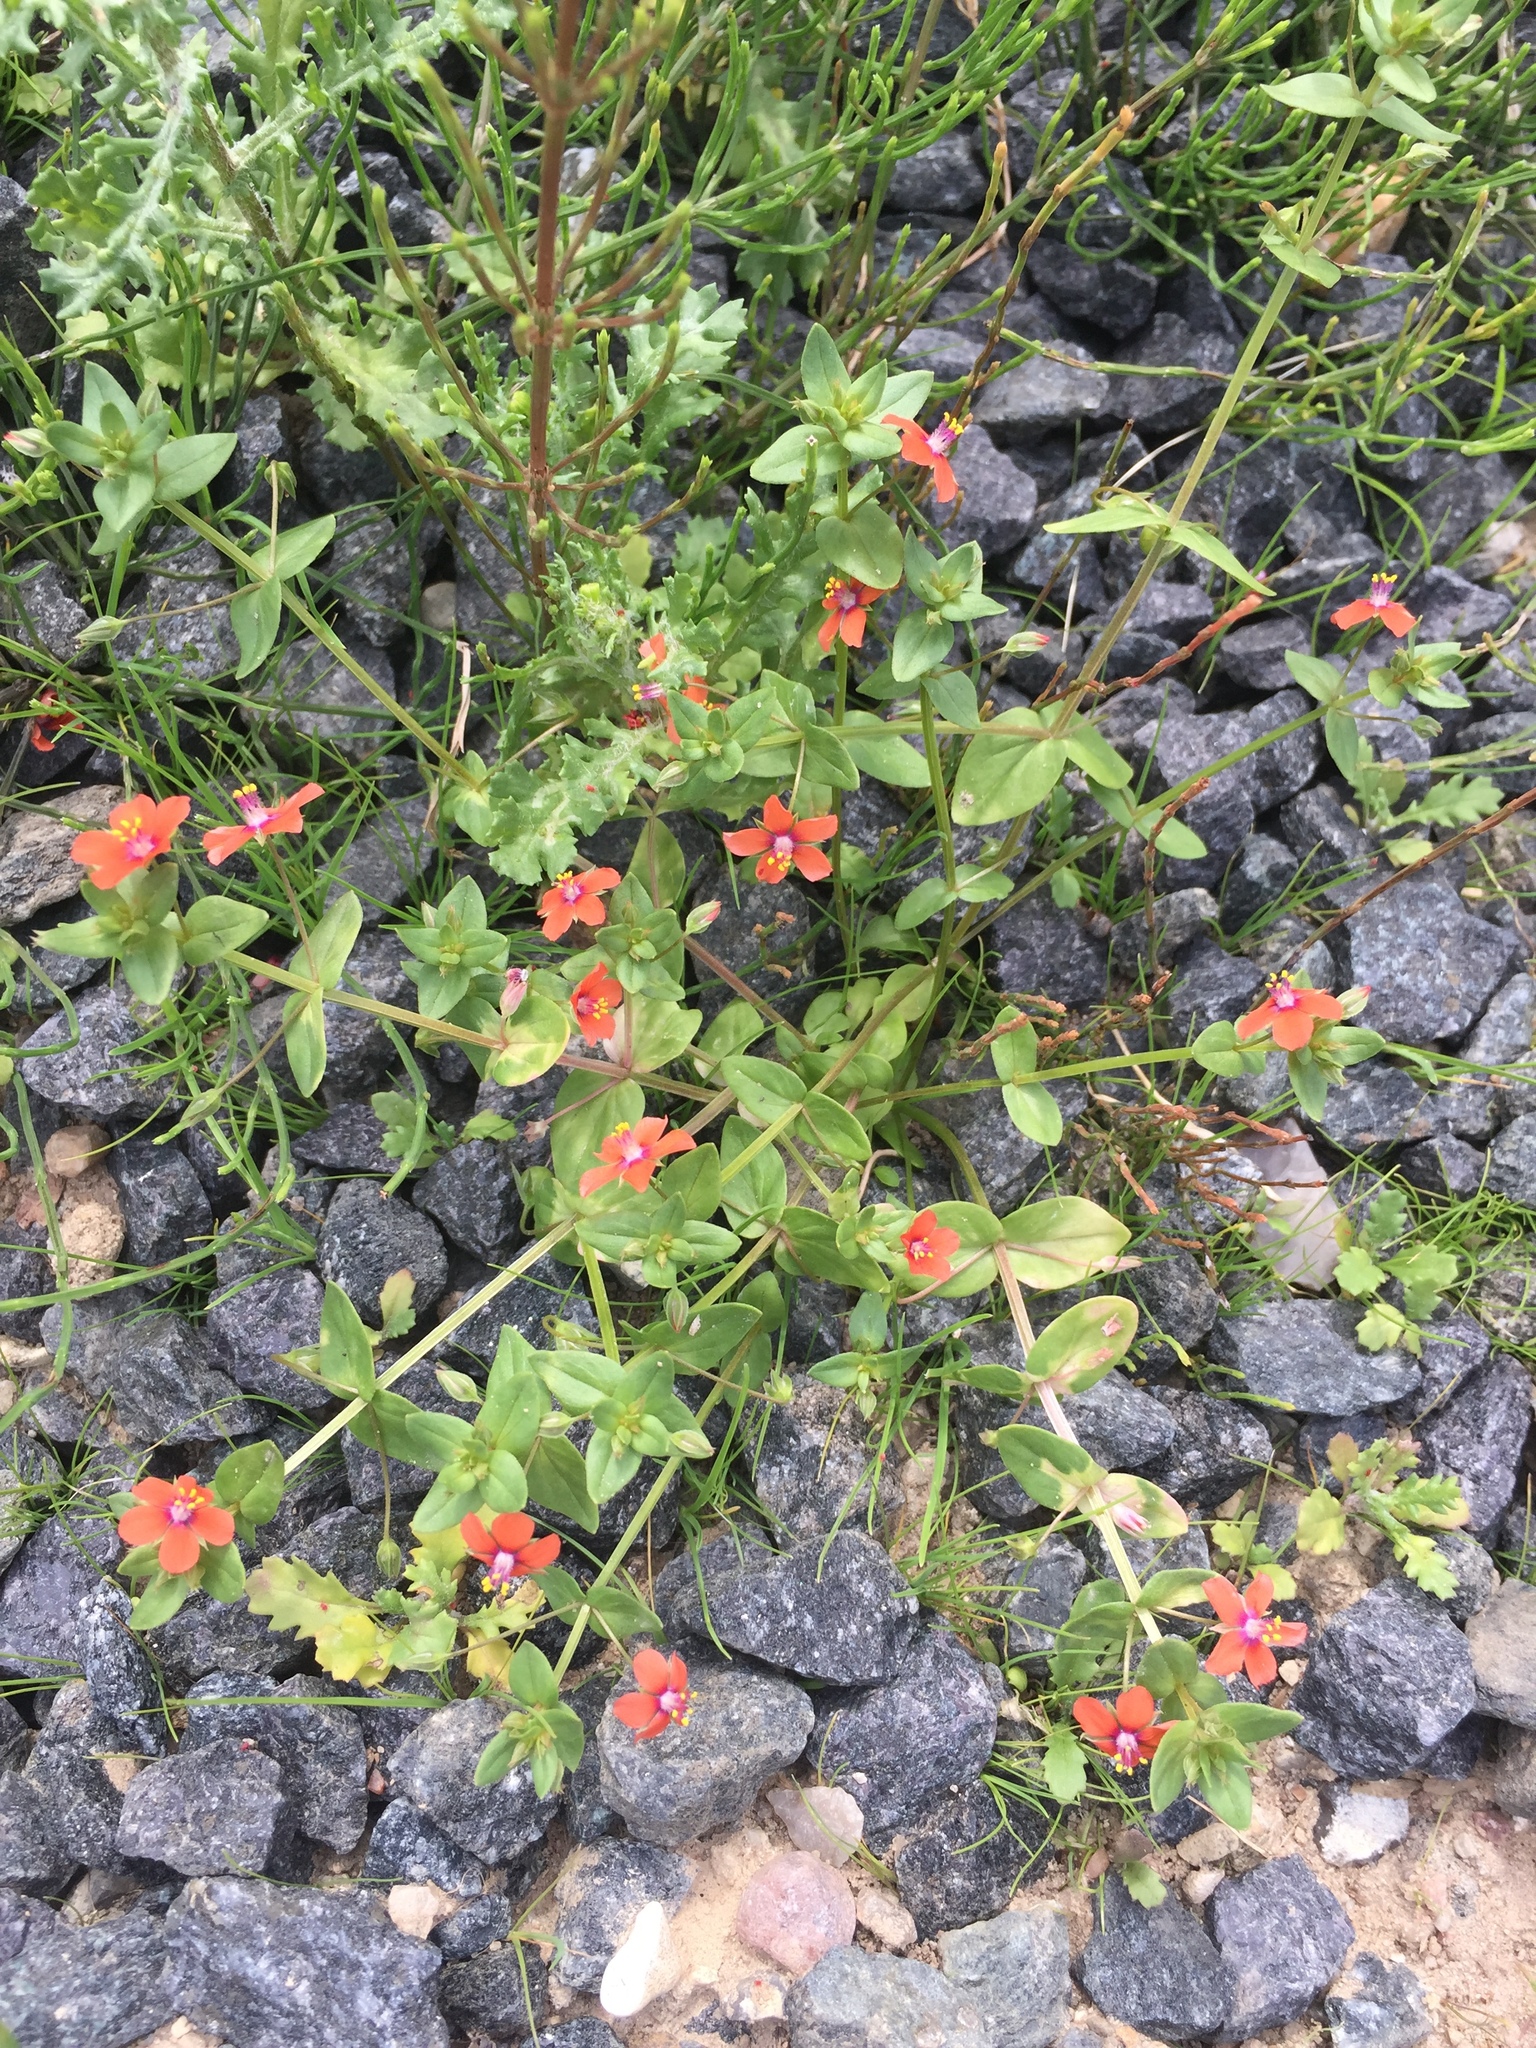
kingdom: Plantae
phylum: Tracheophyta
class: Magnoliopsida
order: Ericales
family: Primulaceae
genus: Lysimachia
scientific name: Lysimachia arvensis
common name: Scarlet pimpernel
